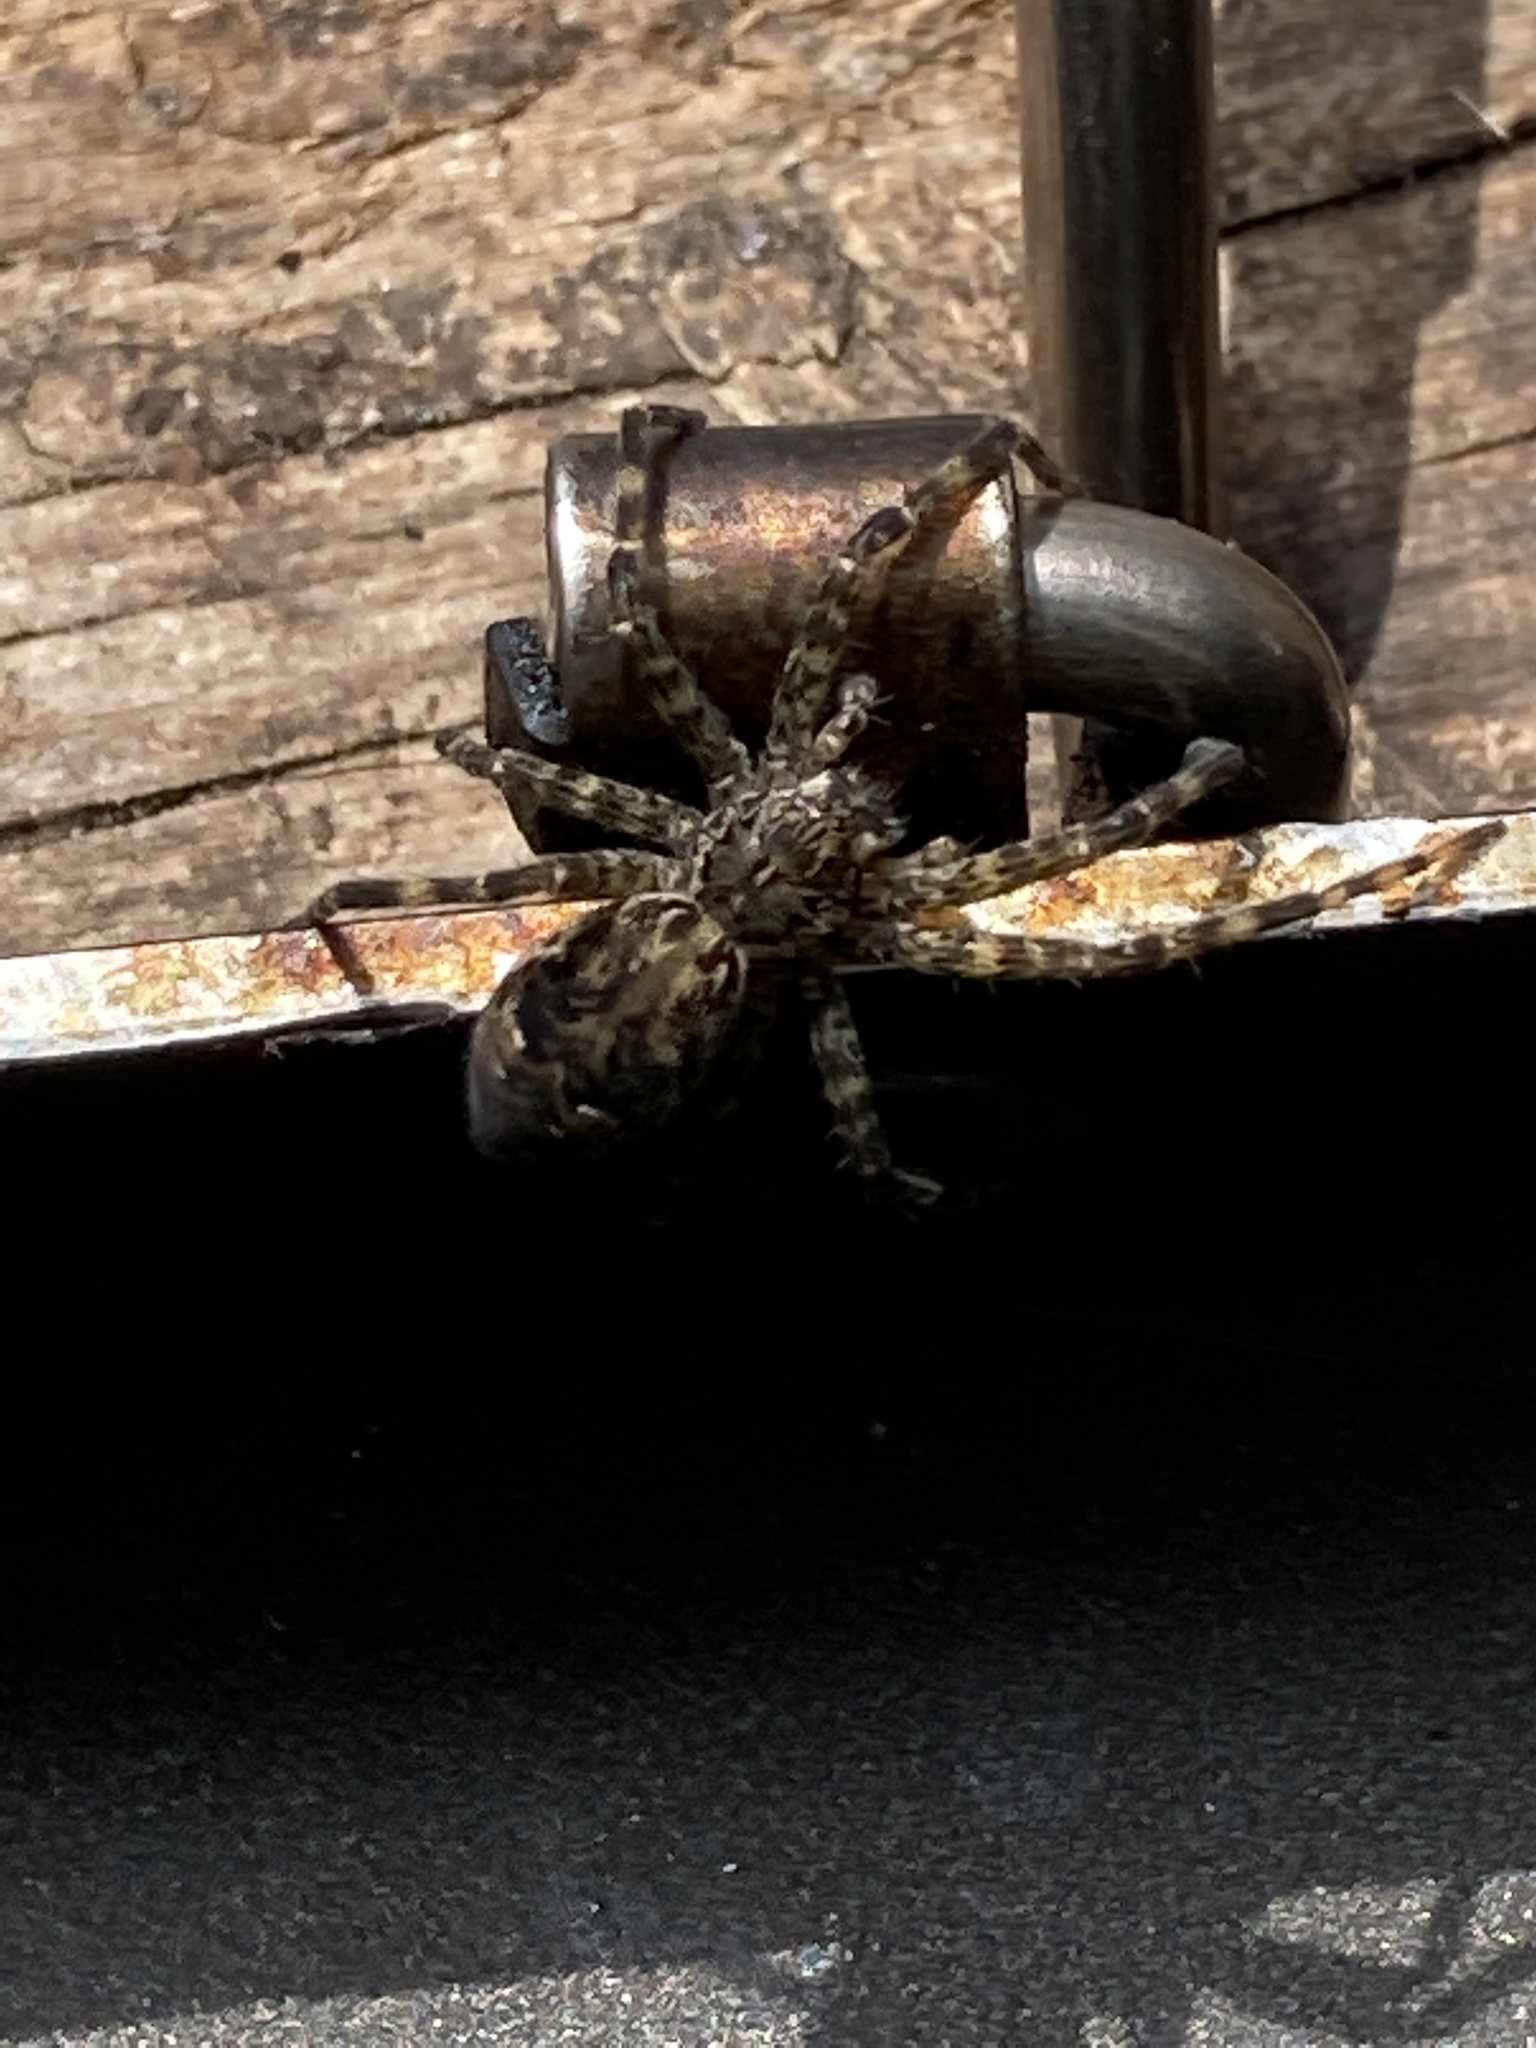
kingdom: Animalia
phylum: Arthropoda
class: Arachnida
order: Araneae
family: Pisauridae
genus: Dolomedes
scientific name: Dolomedes tenebrosus
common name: Dark fishing spider
